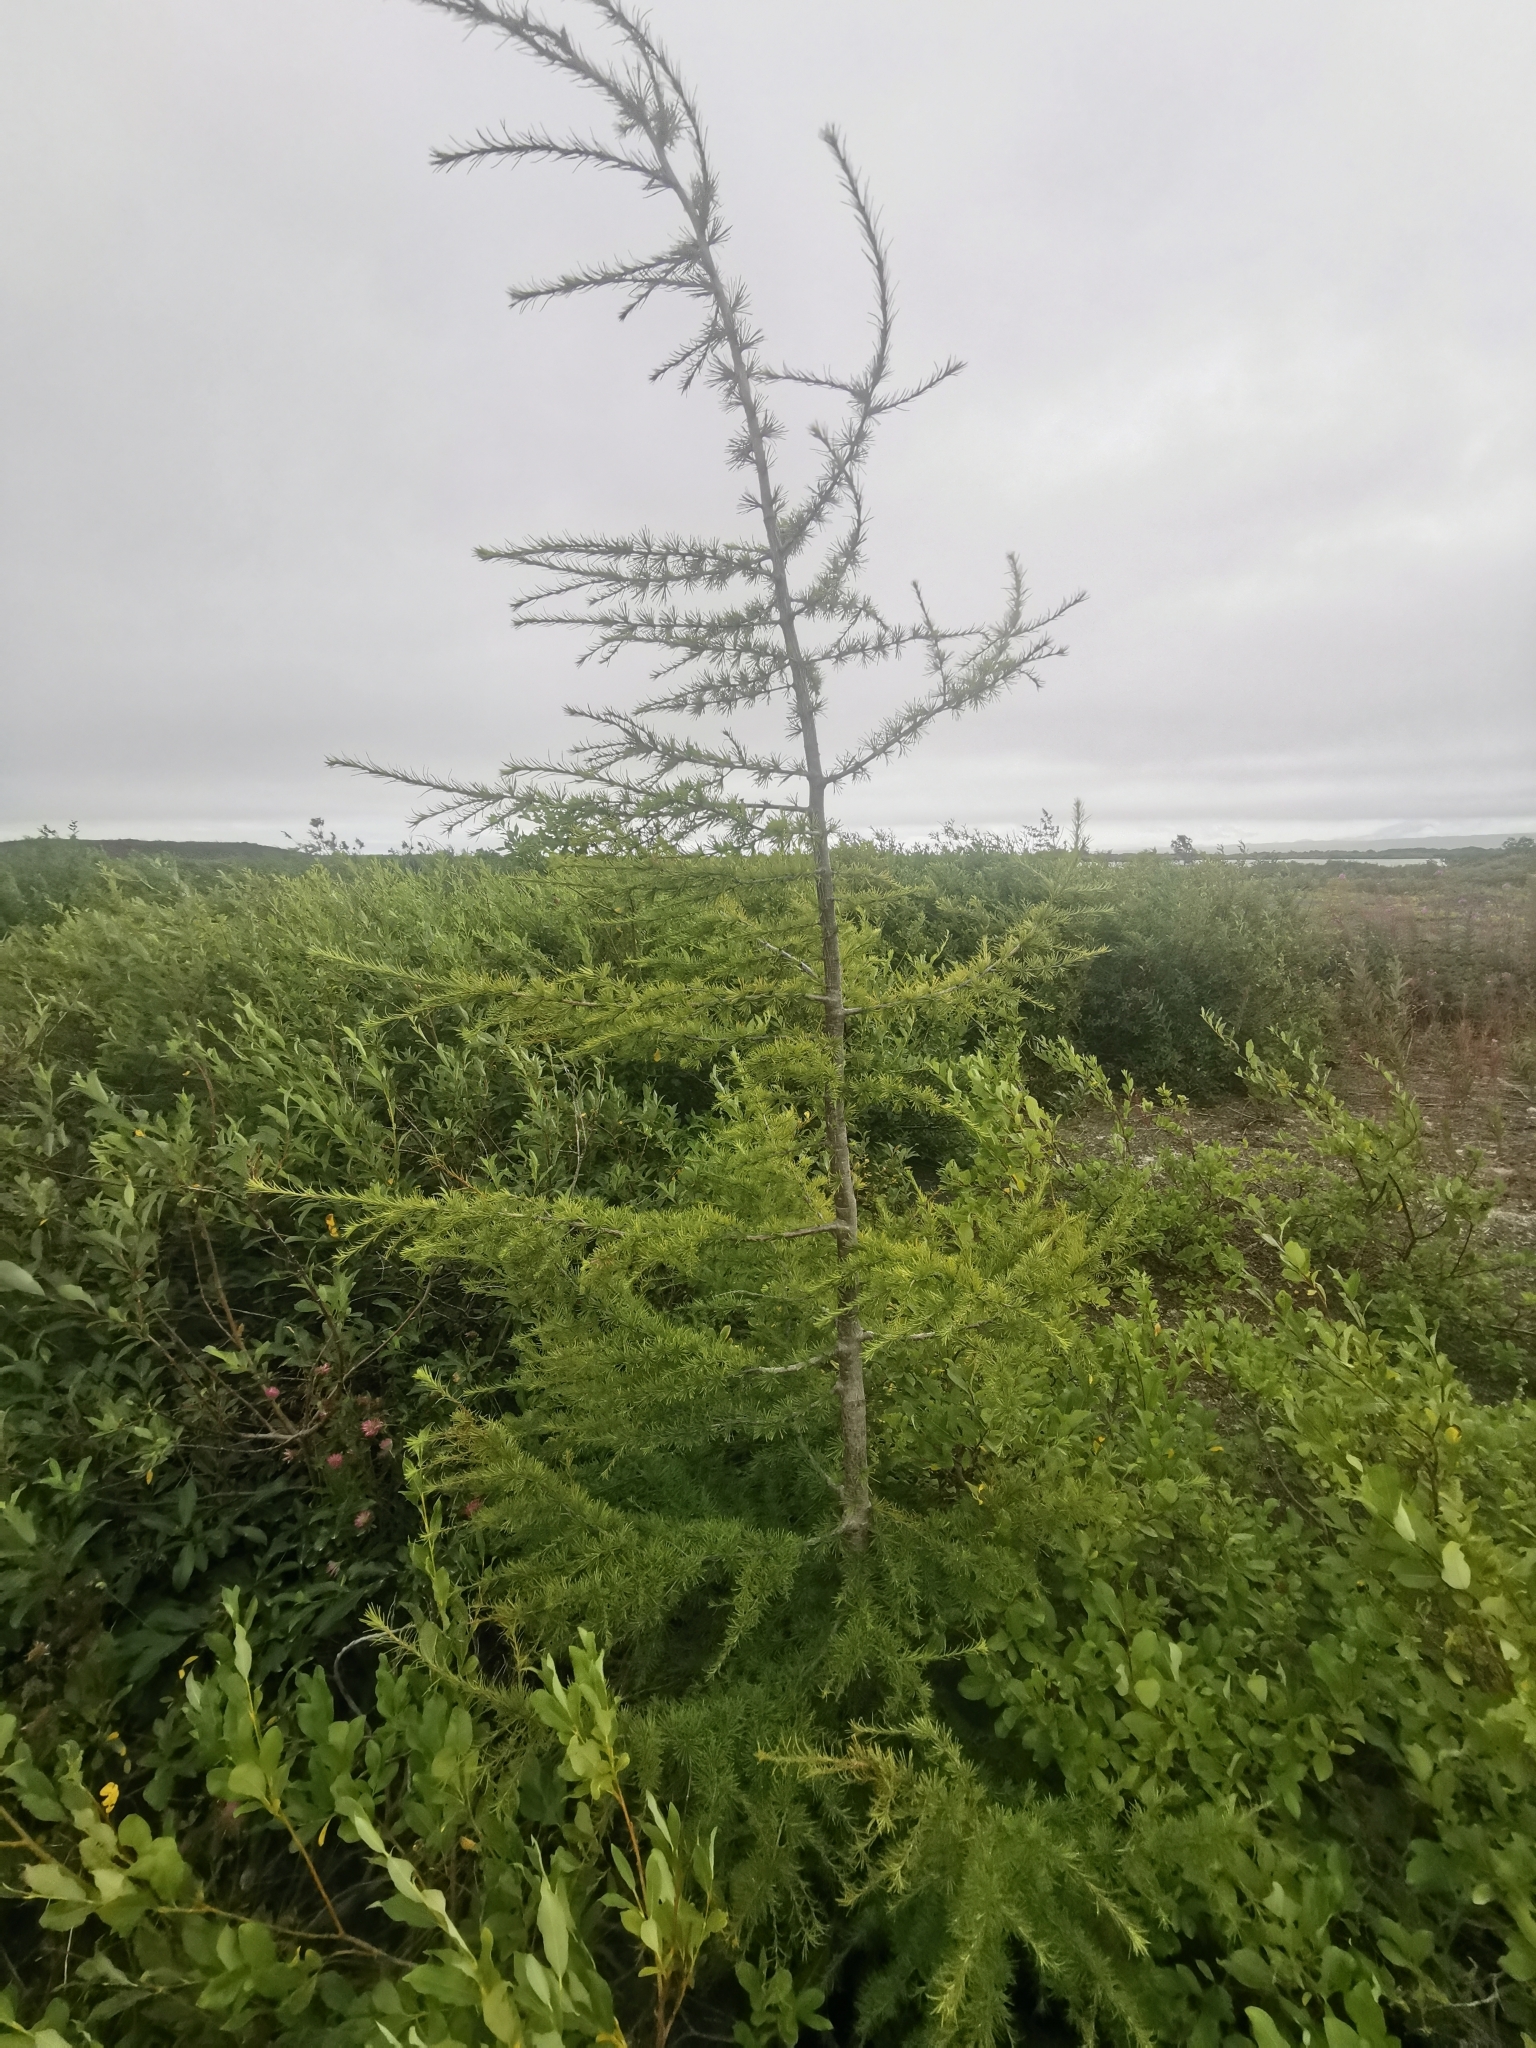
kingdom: Plantae
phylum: Tracheophyta
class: Pinopsida
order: Pinales
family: Pinaceae
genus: Larix
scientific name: Larix gmelinii
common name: Dahurian larch
